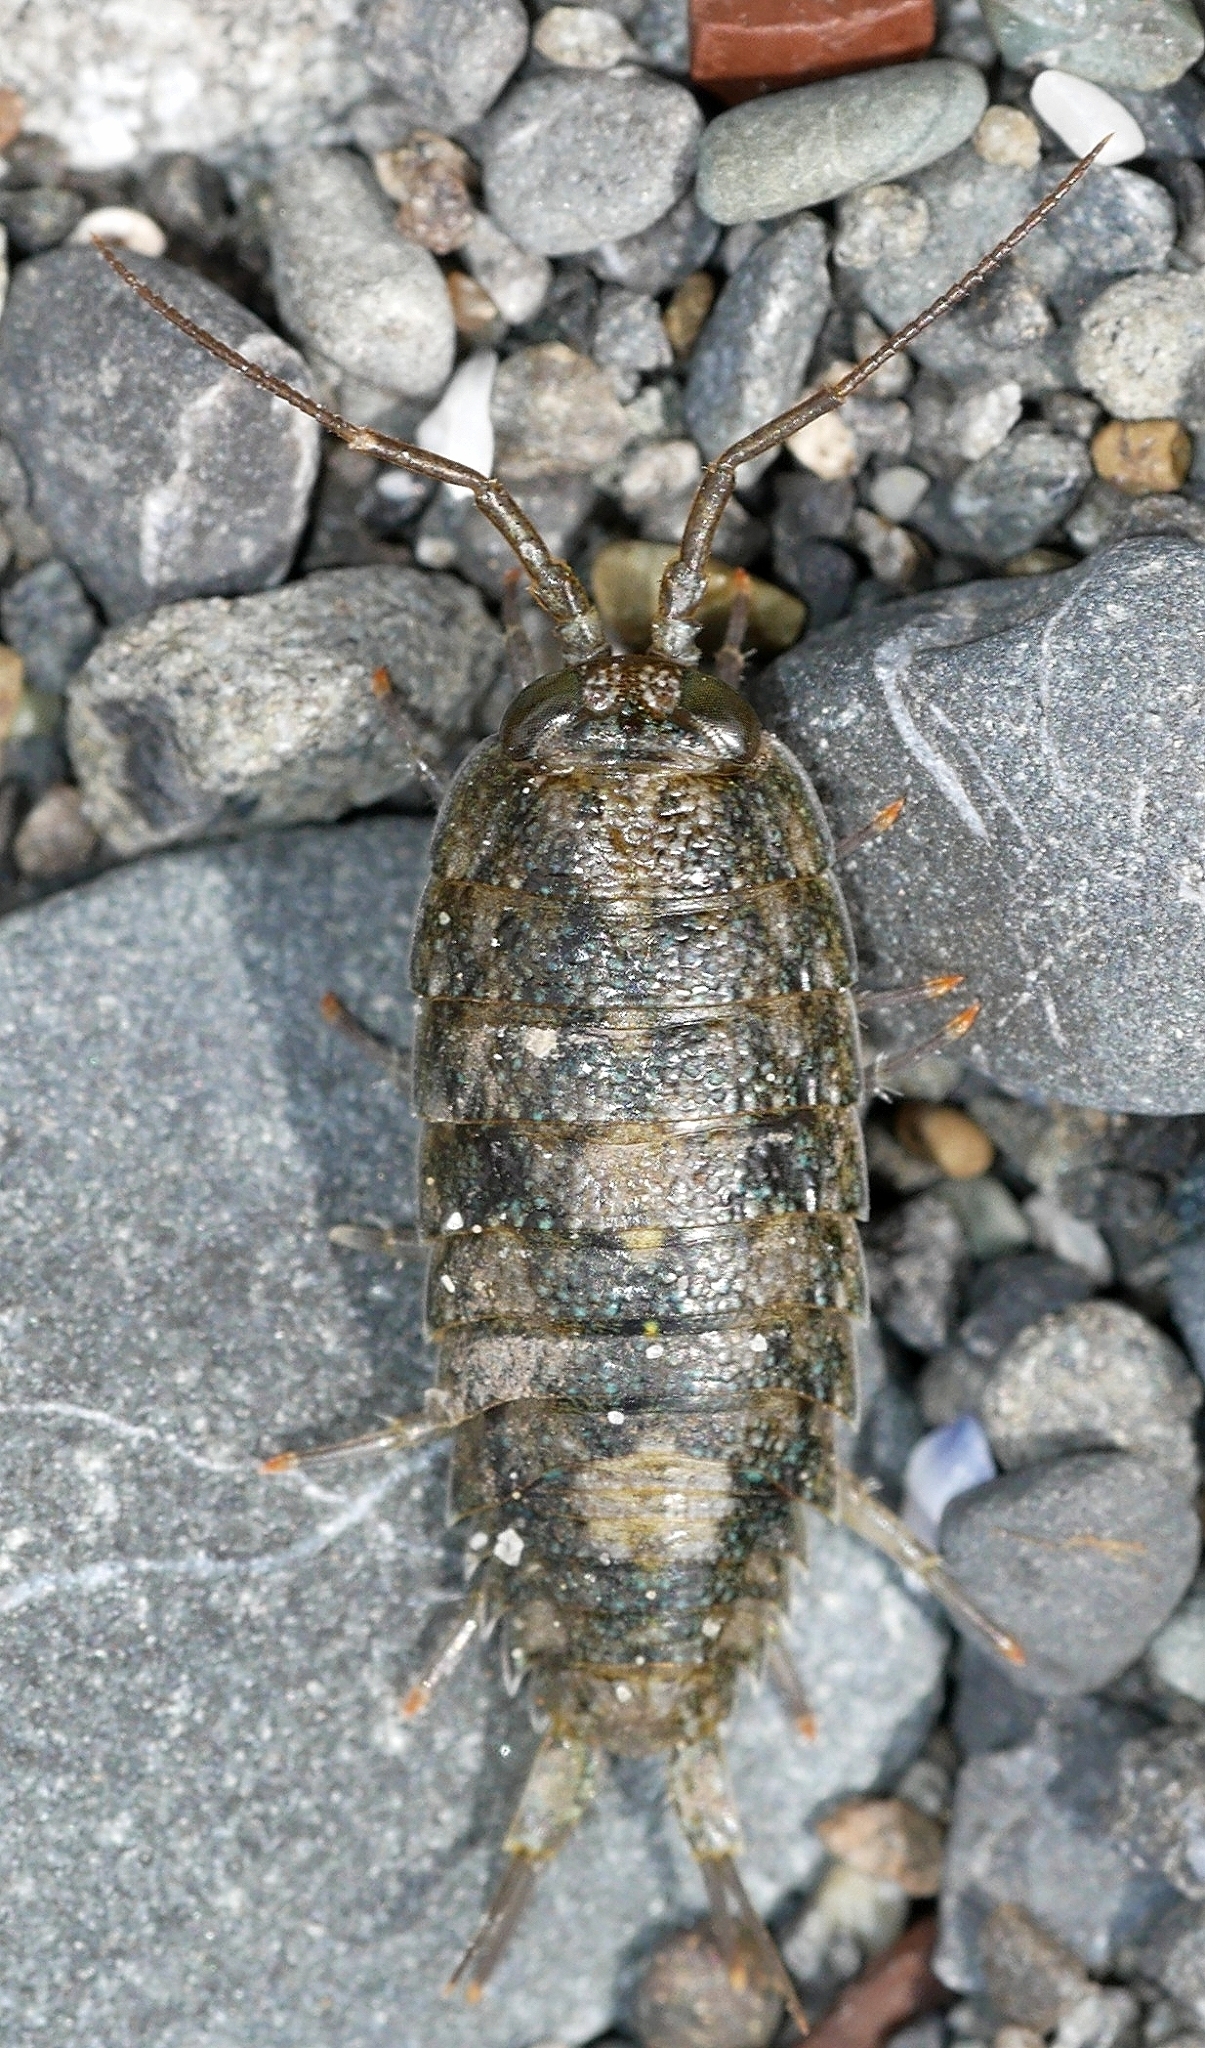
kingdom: Animalia
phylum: Arthropoda
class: Malacostraca
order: Isopoda
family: Ligiidae
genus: Ligia
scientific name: Ligia occidentalis
